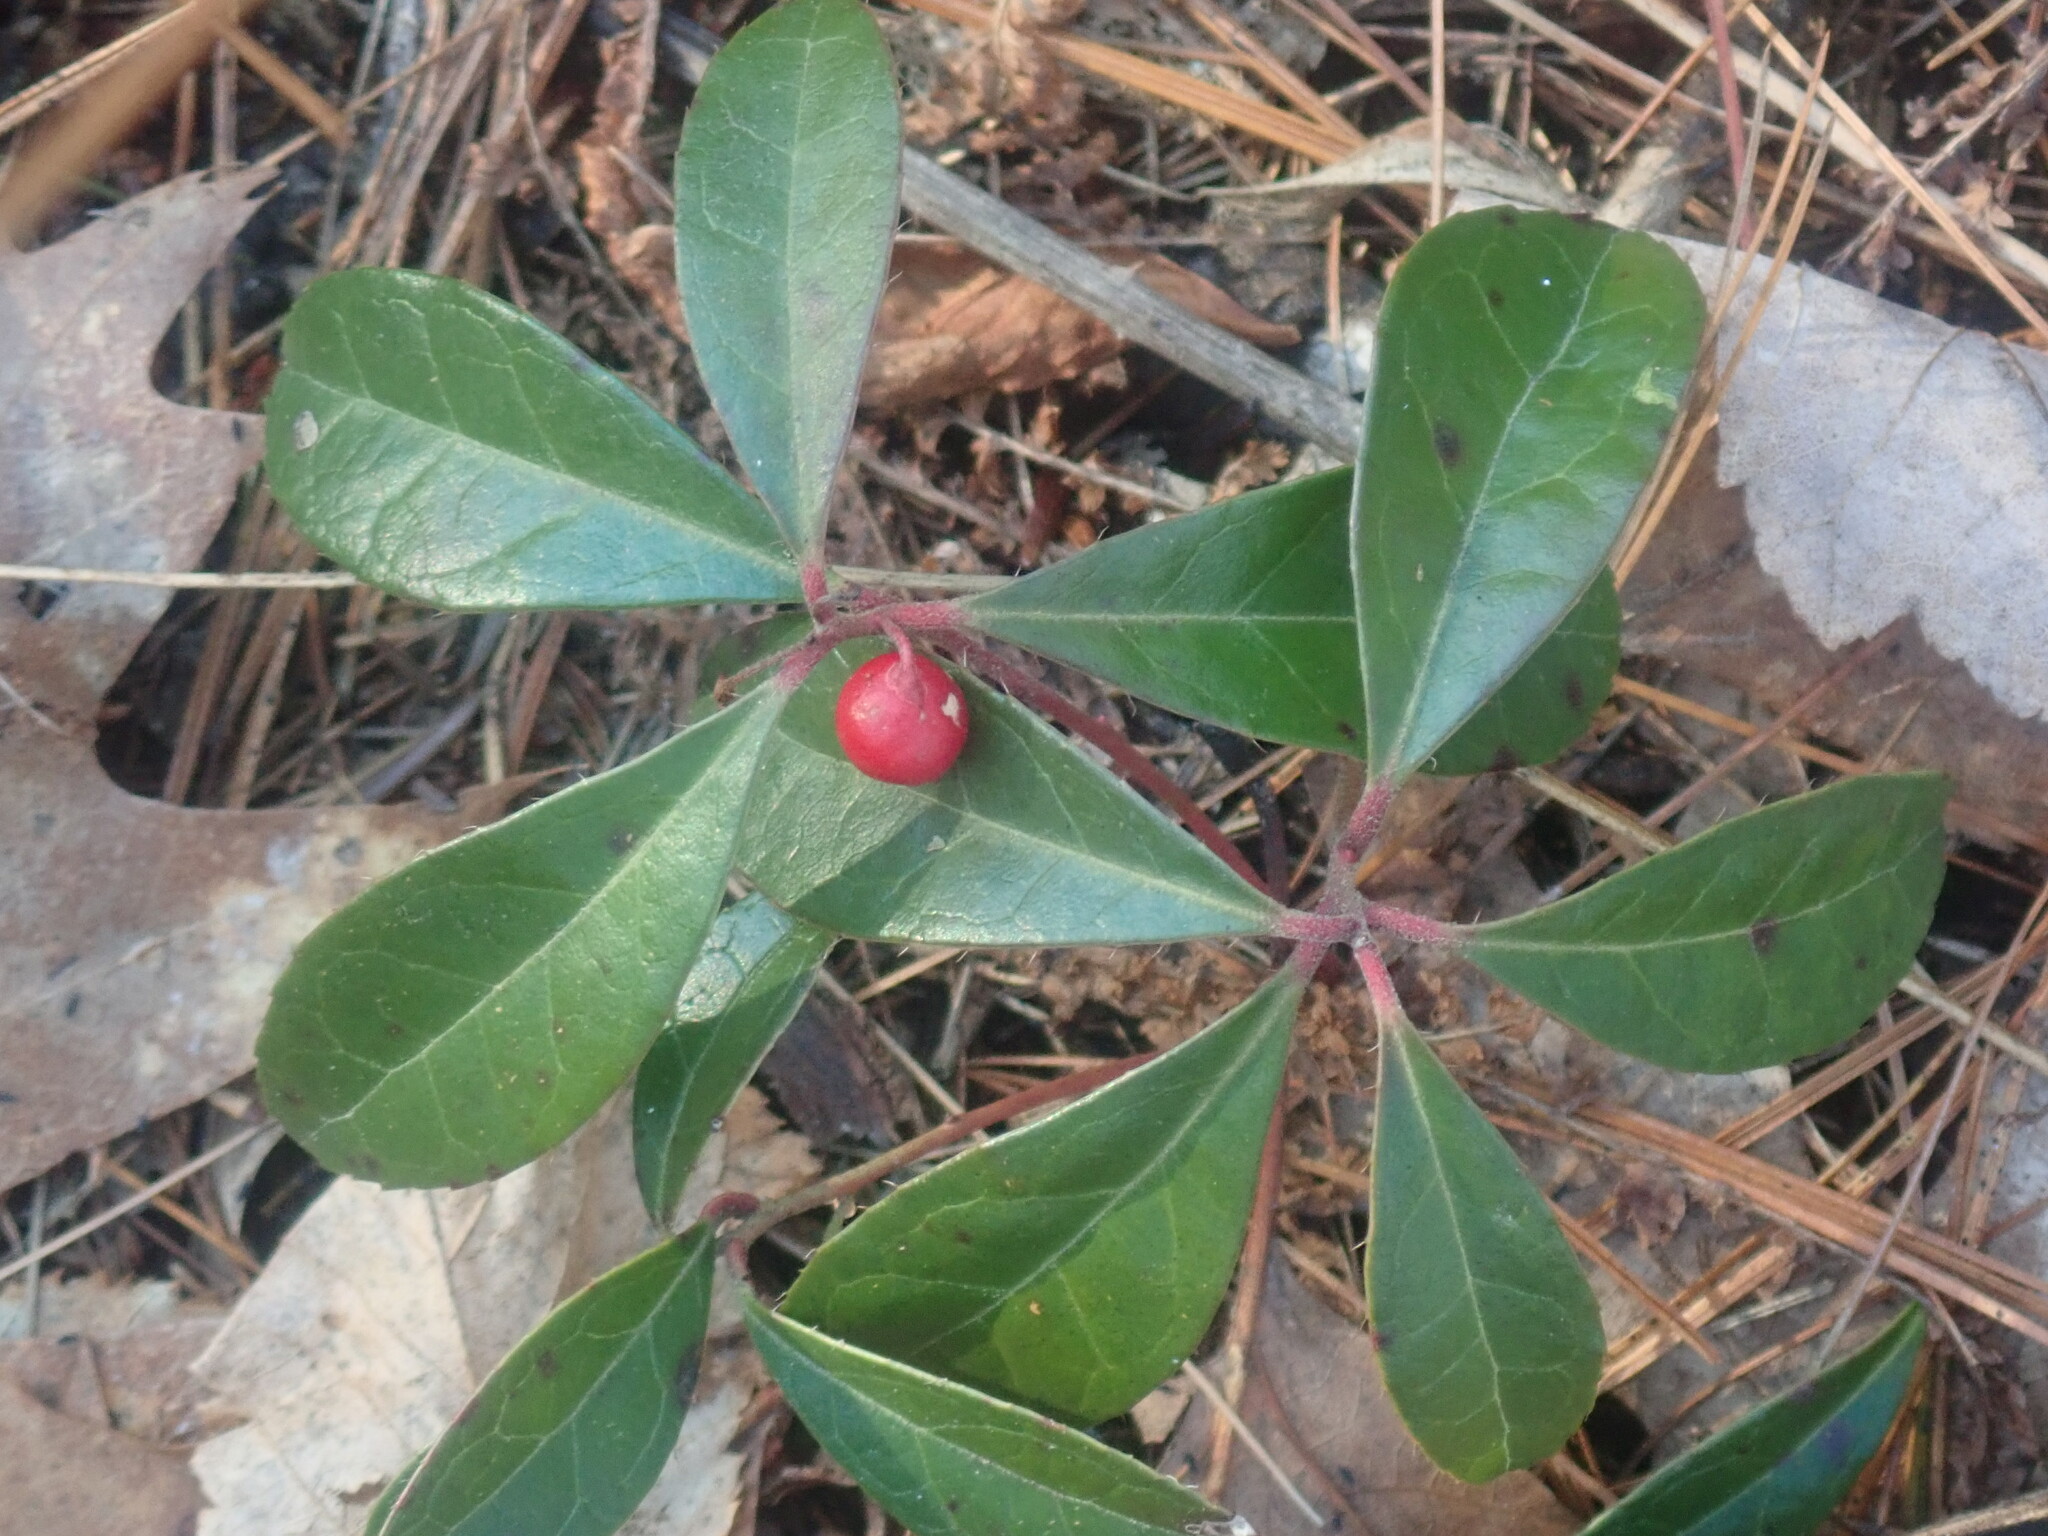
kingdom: Plantae
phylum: Tracheophyta
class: Magnoliopsida
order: Ericales
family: Ericaceae
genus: Gaultheria
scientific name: Gaultheria procumbens
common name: Checkerberry
